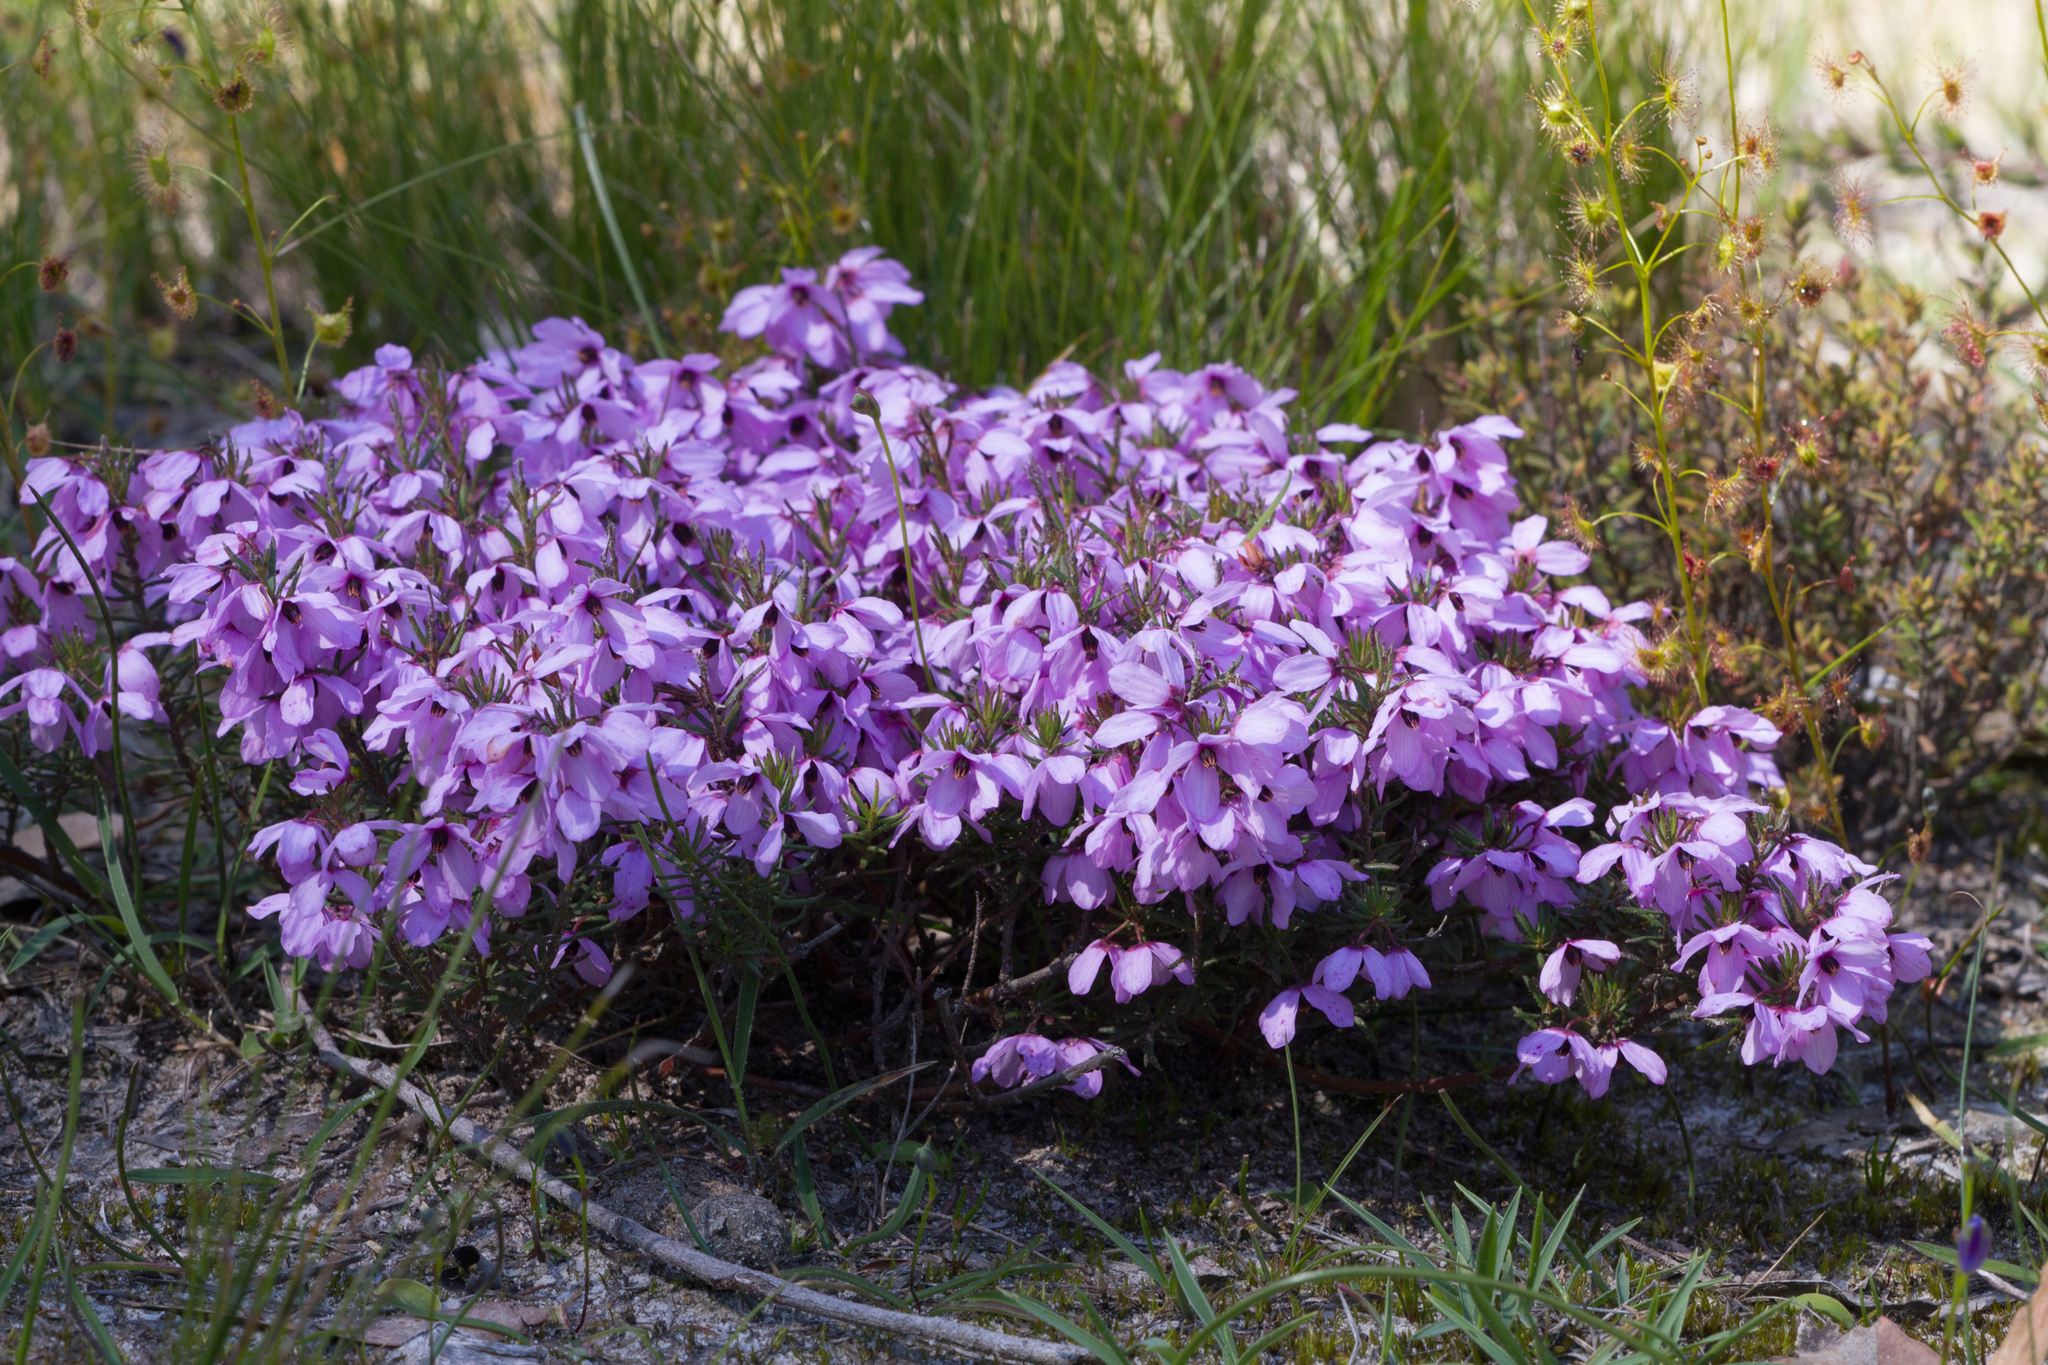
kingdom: Plantae
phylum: Tracheophyta
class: Magnoliopsida
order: Oxalidales
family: Elaeocarpaceae
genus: Tetratheca
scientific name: Tetratheca pilosa
